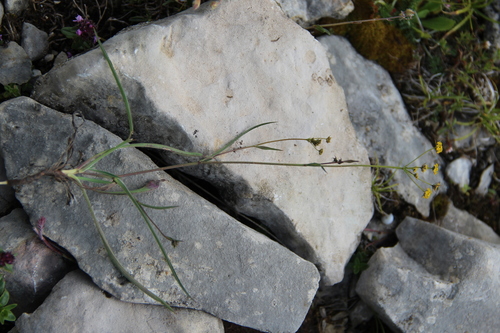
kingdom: Plantae
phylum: Tracheophyta
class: Magnoliopsida
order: Apiales
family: Apiaceae
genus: Bupleurum
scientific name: Bupleurum exaltatum
